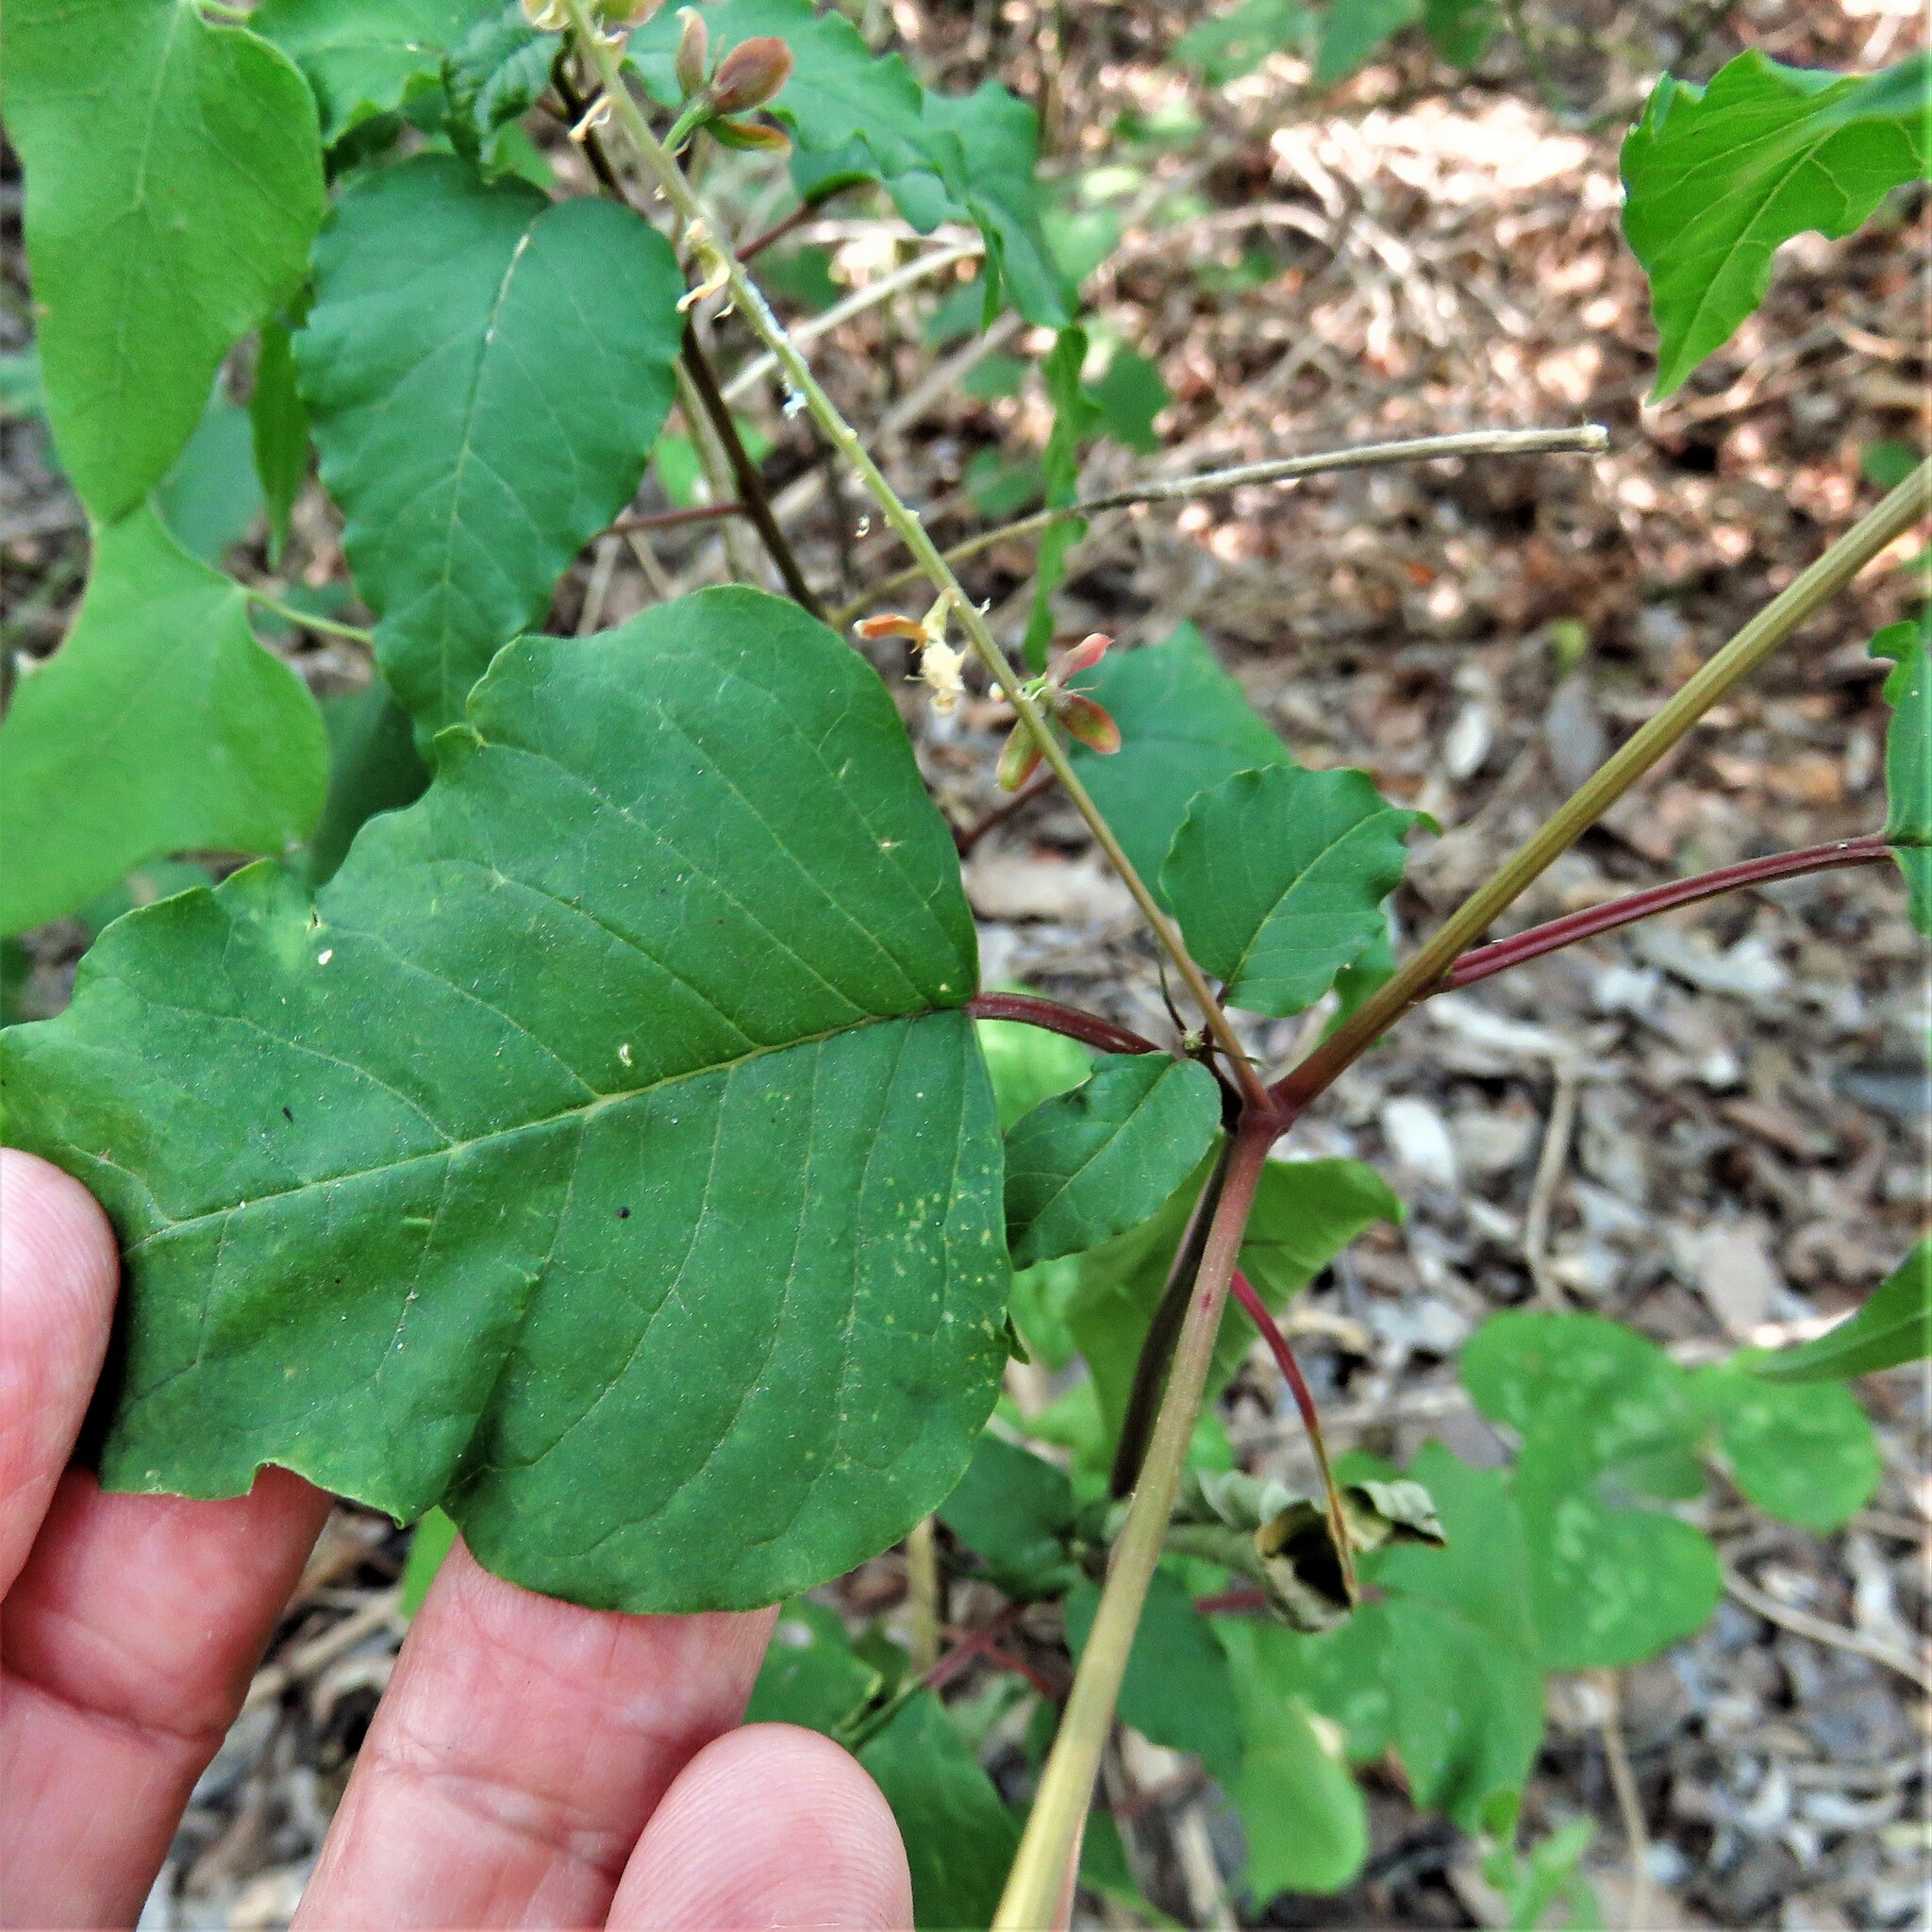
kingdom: Plantae
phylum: Tracheophyta
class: Magnoliopsida
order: Caryophyllales
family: Phytolaccaceae
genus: Rivina
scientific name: Rivina humilis
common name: Rougeplant
